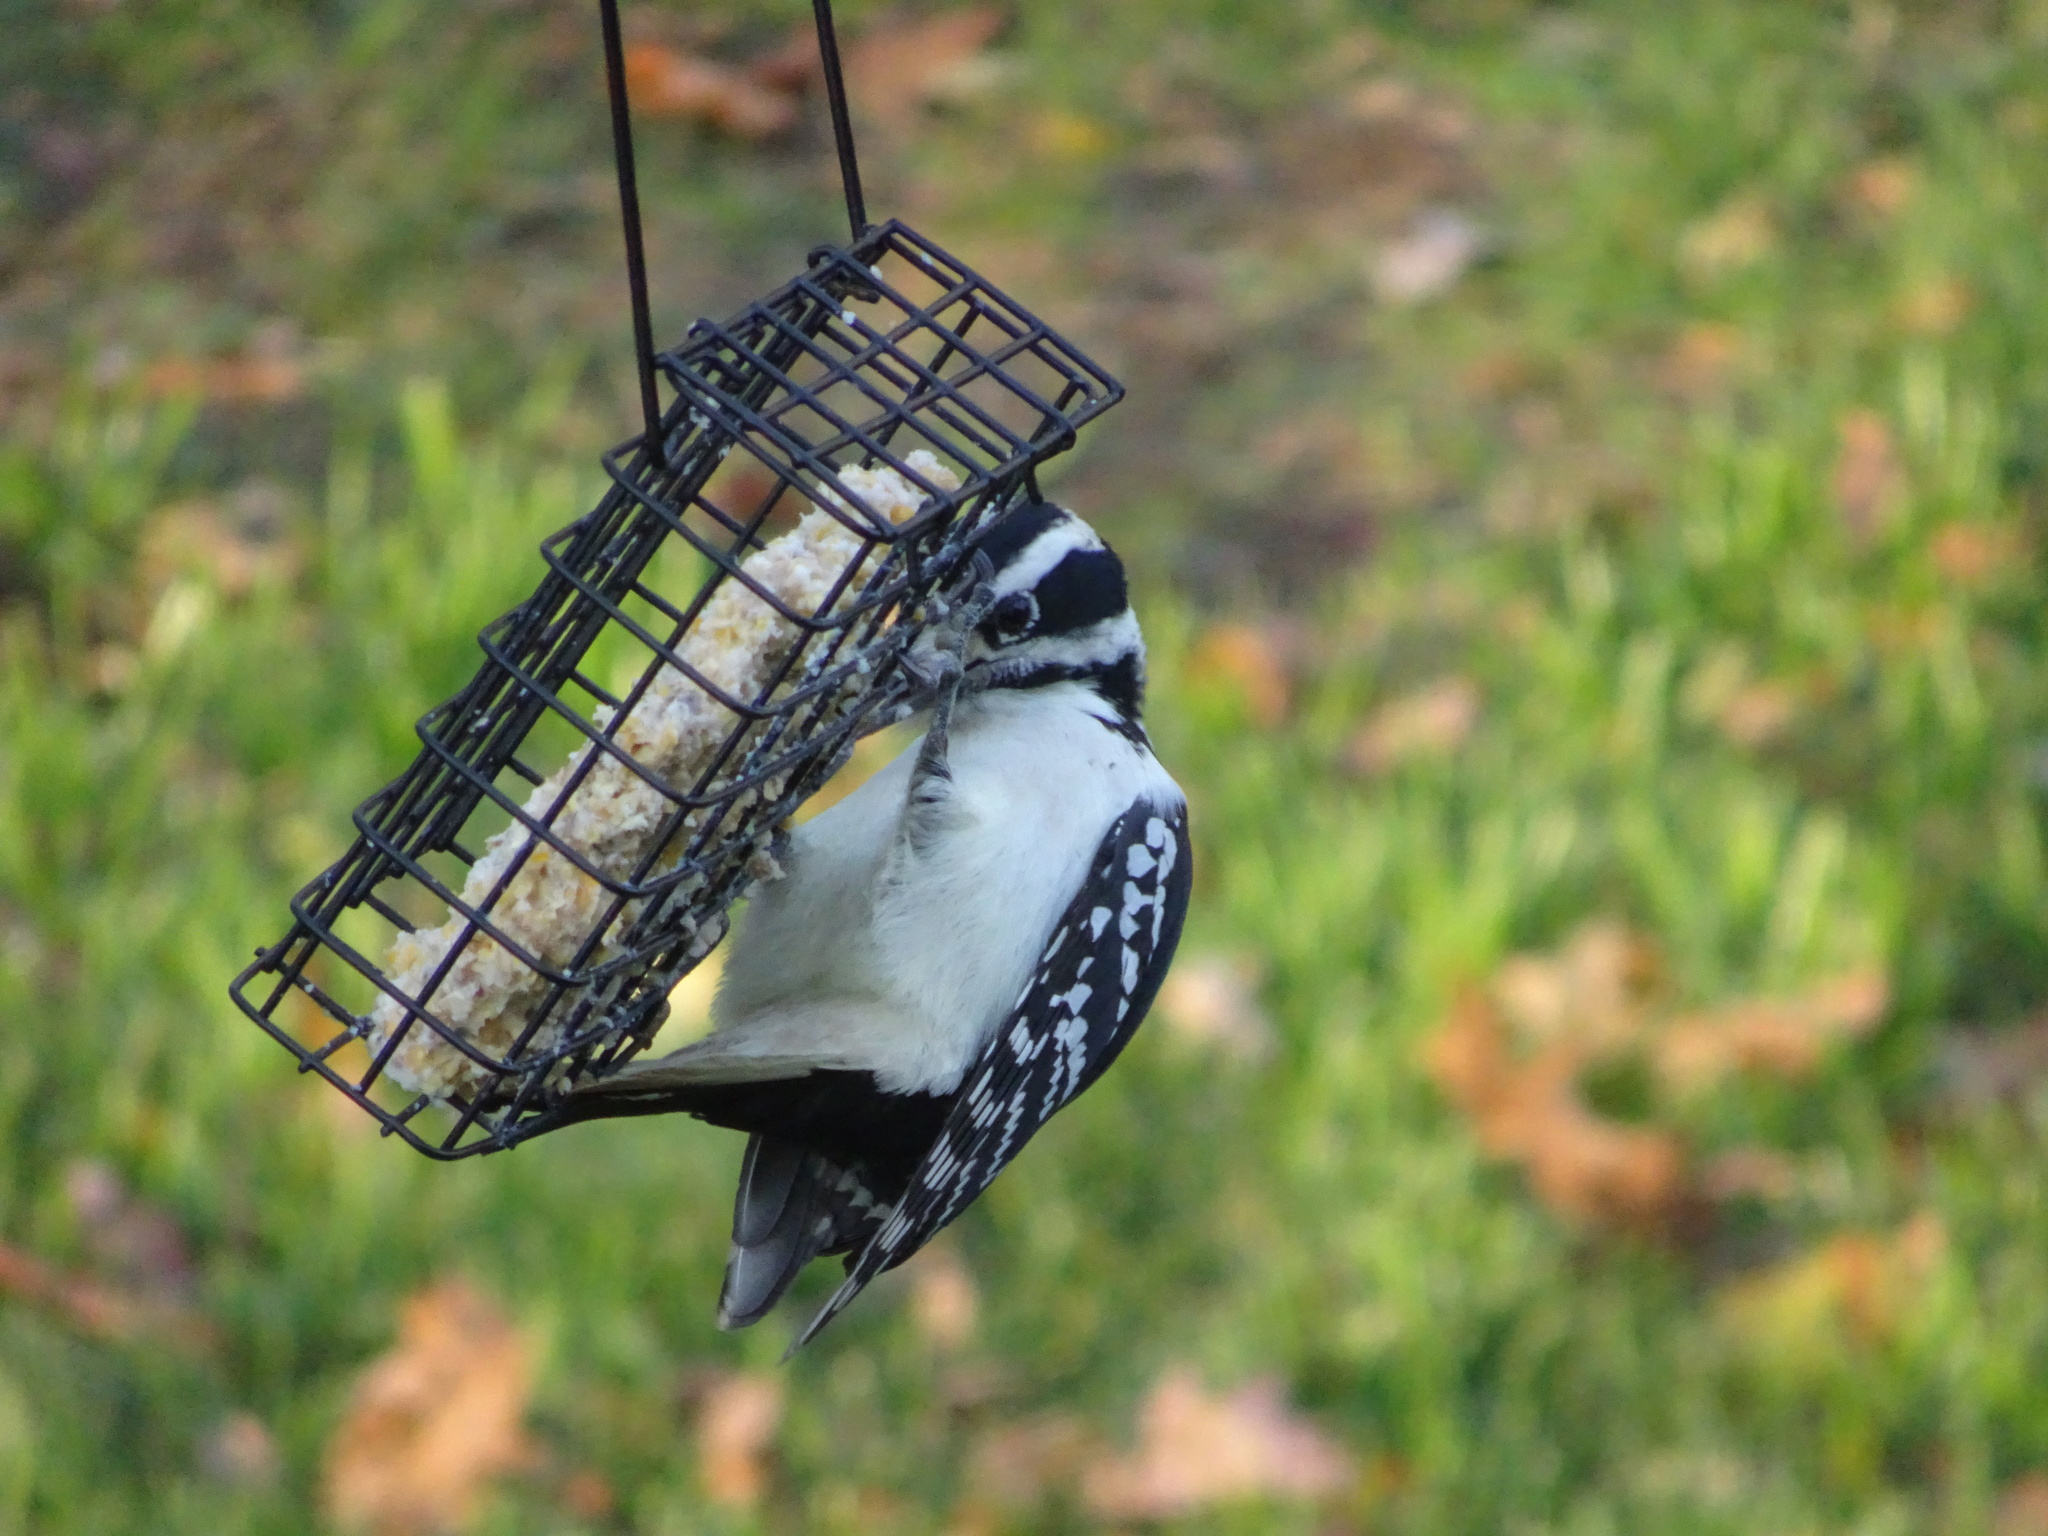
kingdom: Animalia
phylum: Chordata
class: Aves
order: Piciformes
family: Picidae
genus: Leuconotopicus
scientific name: Leuconotopicus villosus
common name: Hairy woodpecker
